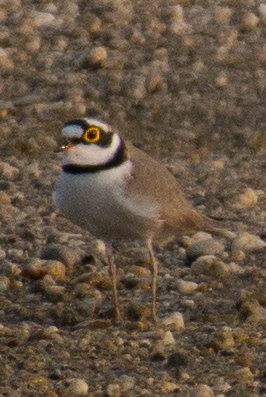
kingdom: Animalia
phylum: Chordata
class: Aves
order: Charadriiformes
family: Charadriidae
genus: Charadrius
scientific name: Charadrius dubius
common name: Little ringed plover
